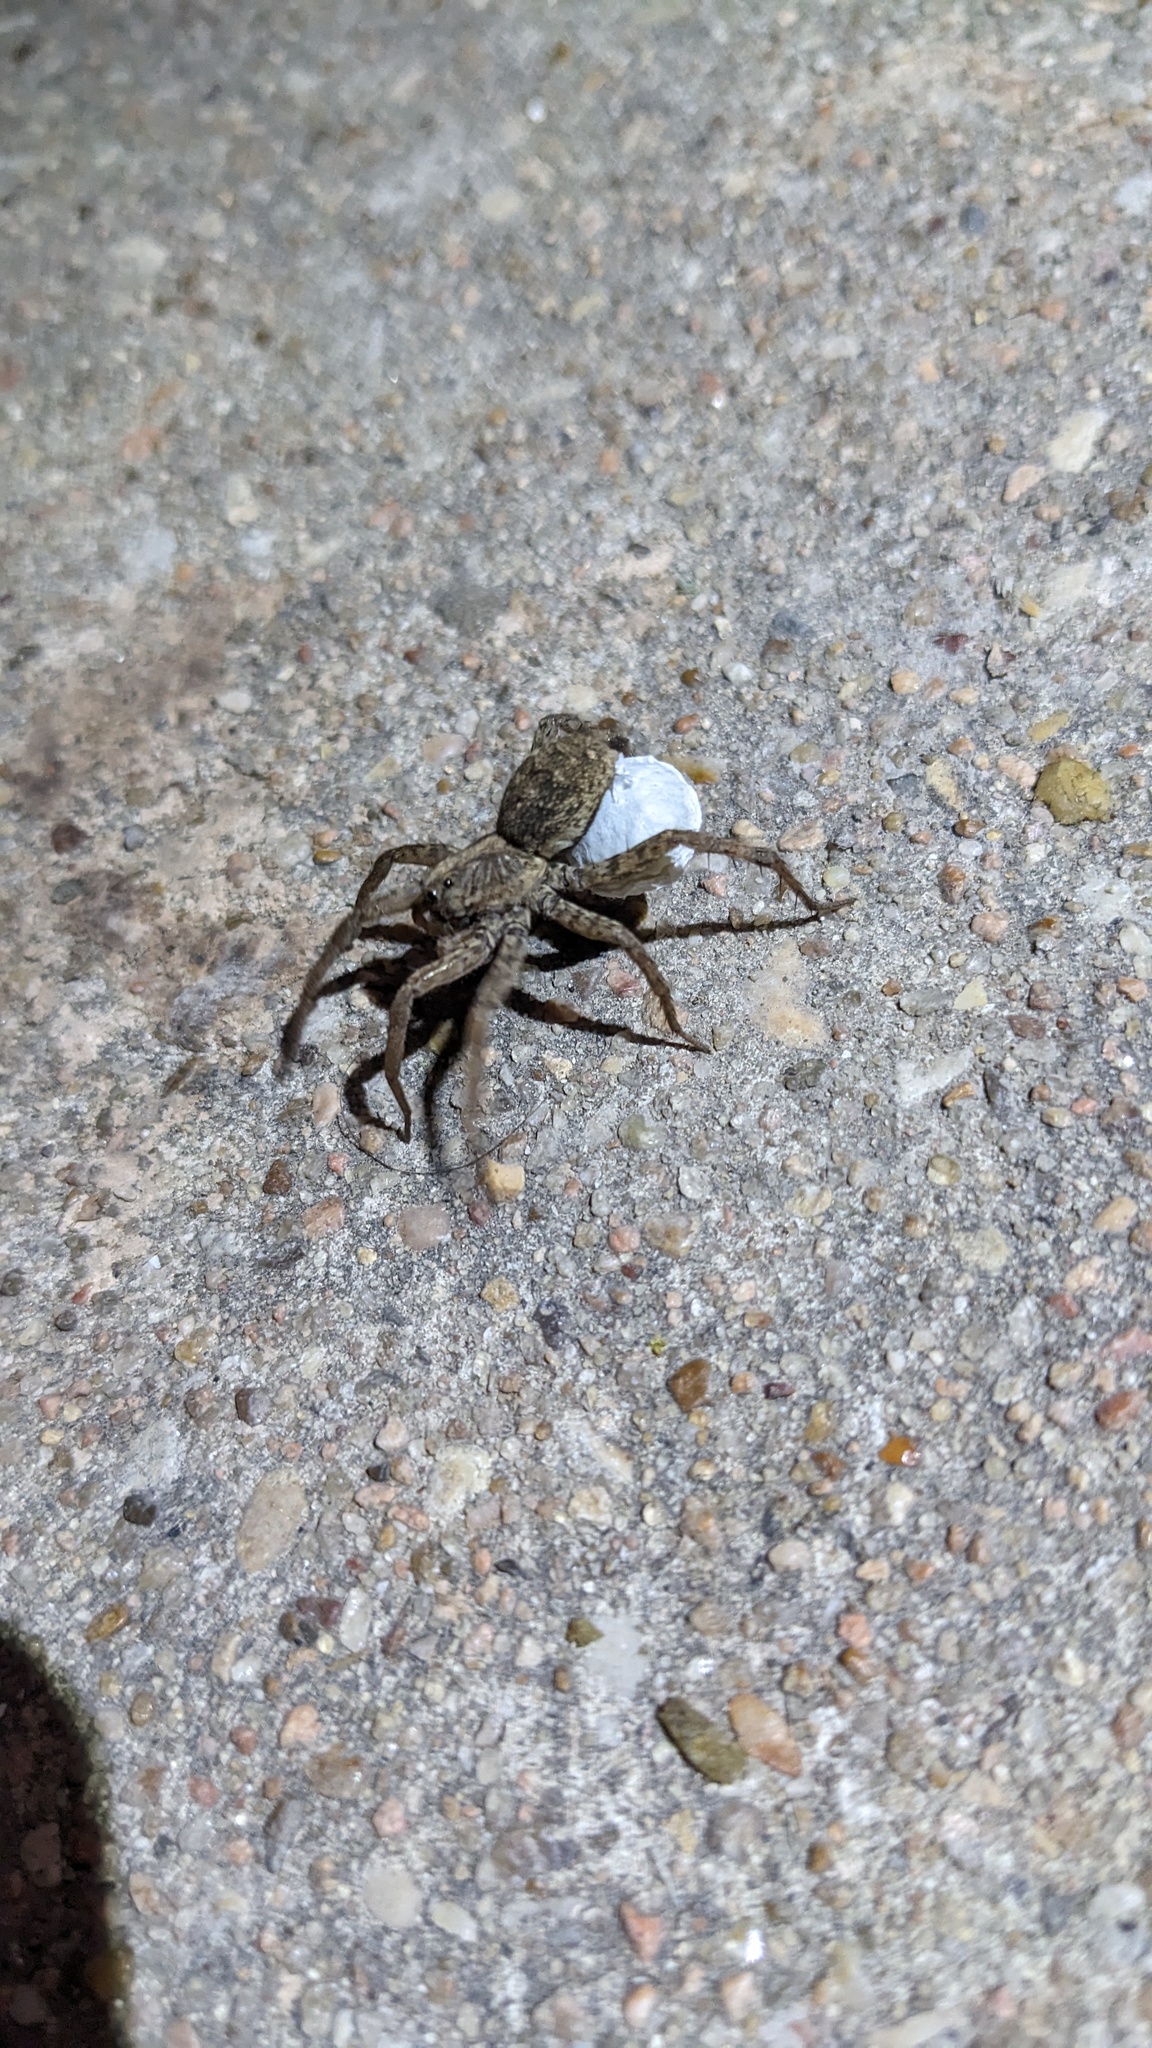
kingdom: Animalia
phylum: Arthropoda
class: Arachnida
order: Araneae
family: Lycosidae
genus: Hogna
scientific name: Hogna antelucana
